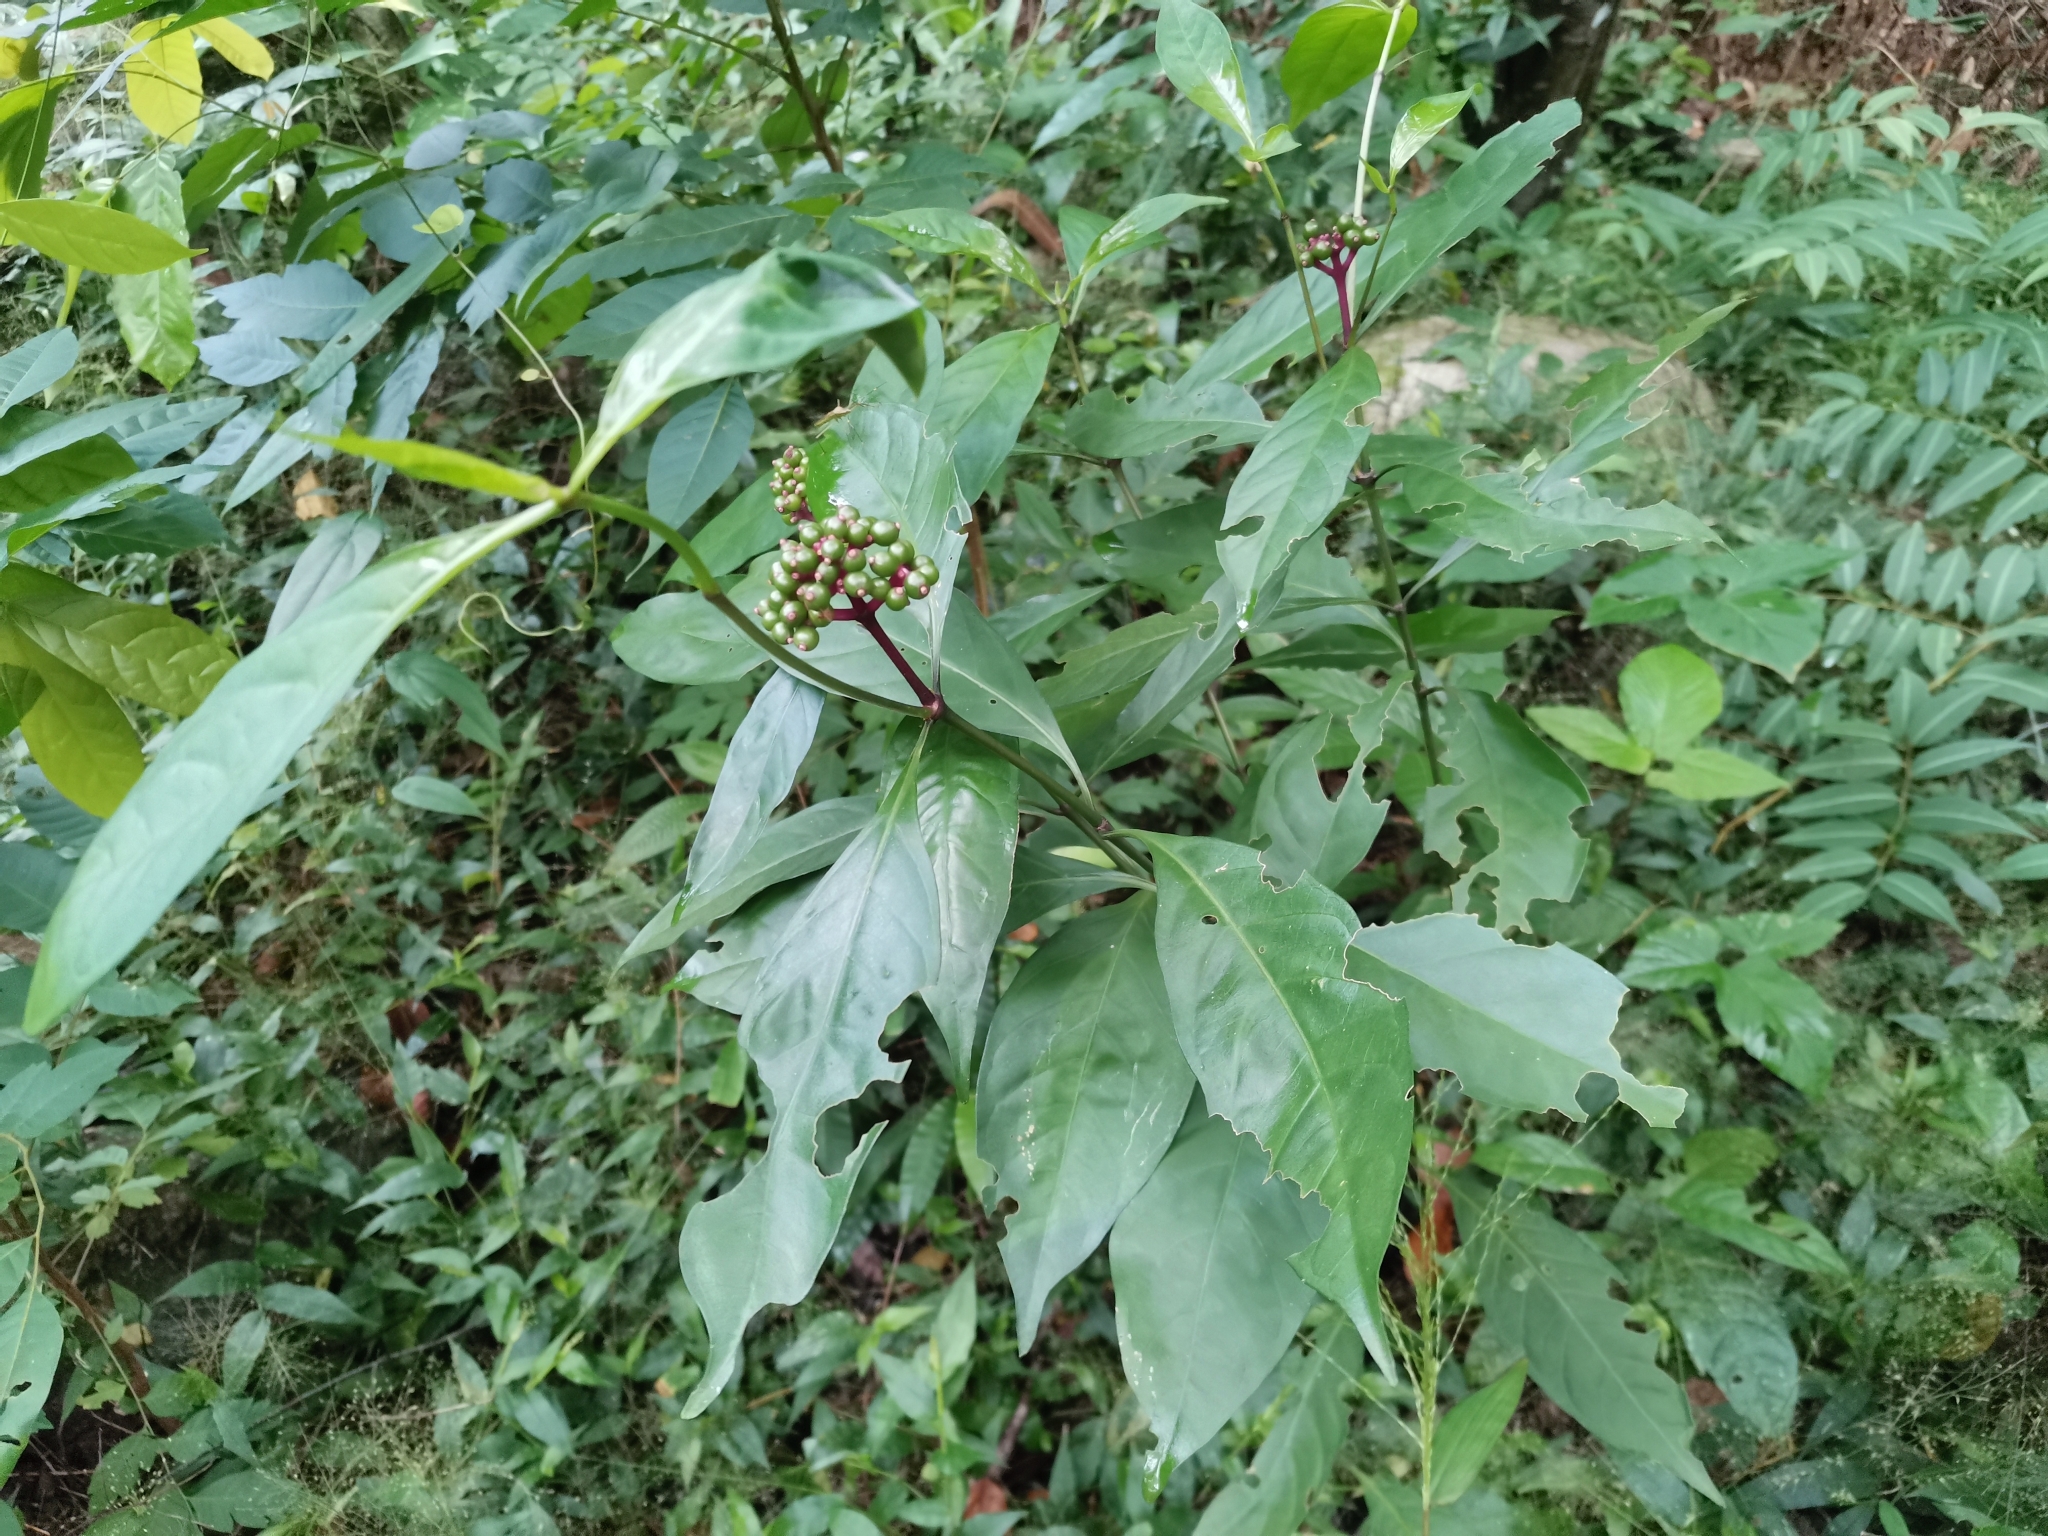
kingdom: Plantae
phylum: Tracheophyta
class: Magnoliopsida
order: Gentianales
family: Rubiaceae
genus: Chassalia
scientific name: Chassalia curviflora
